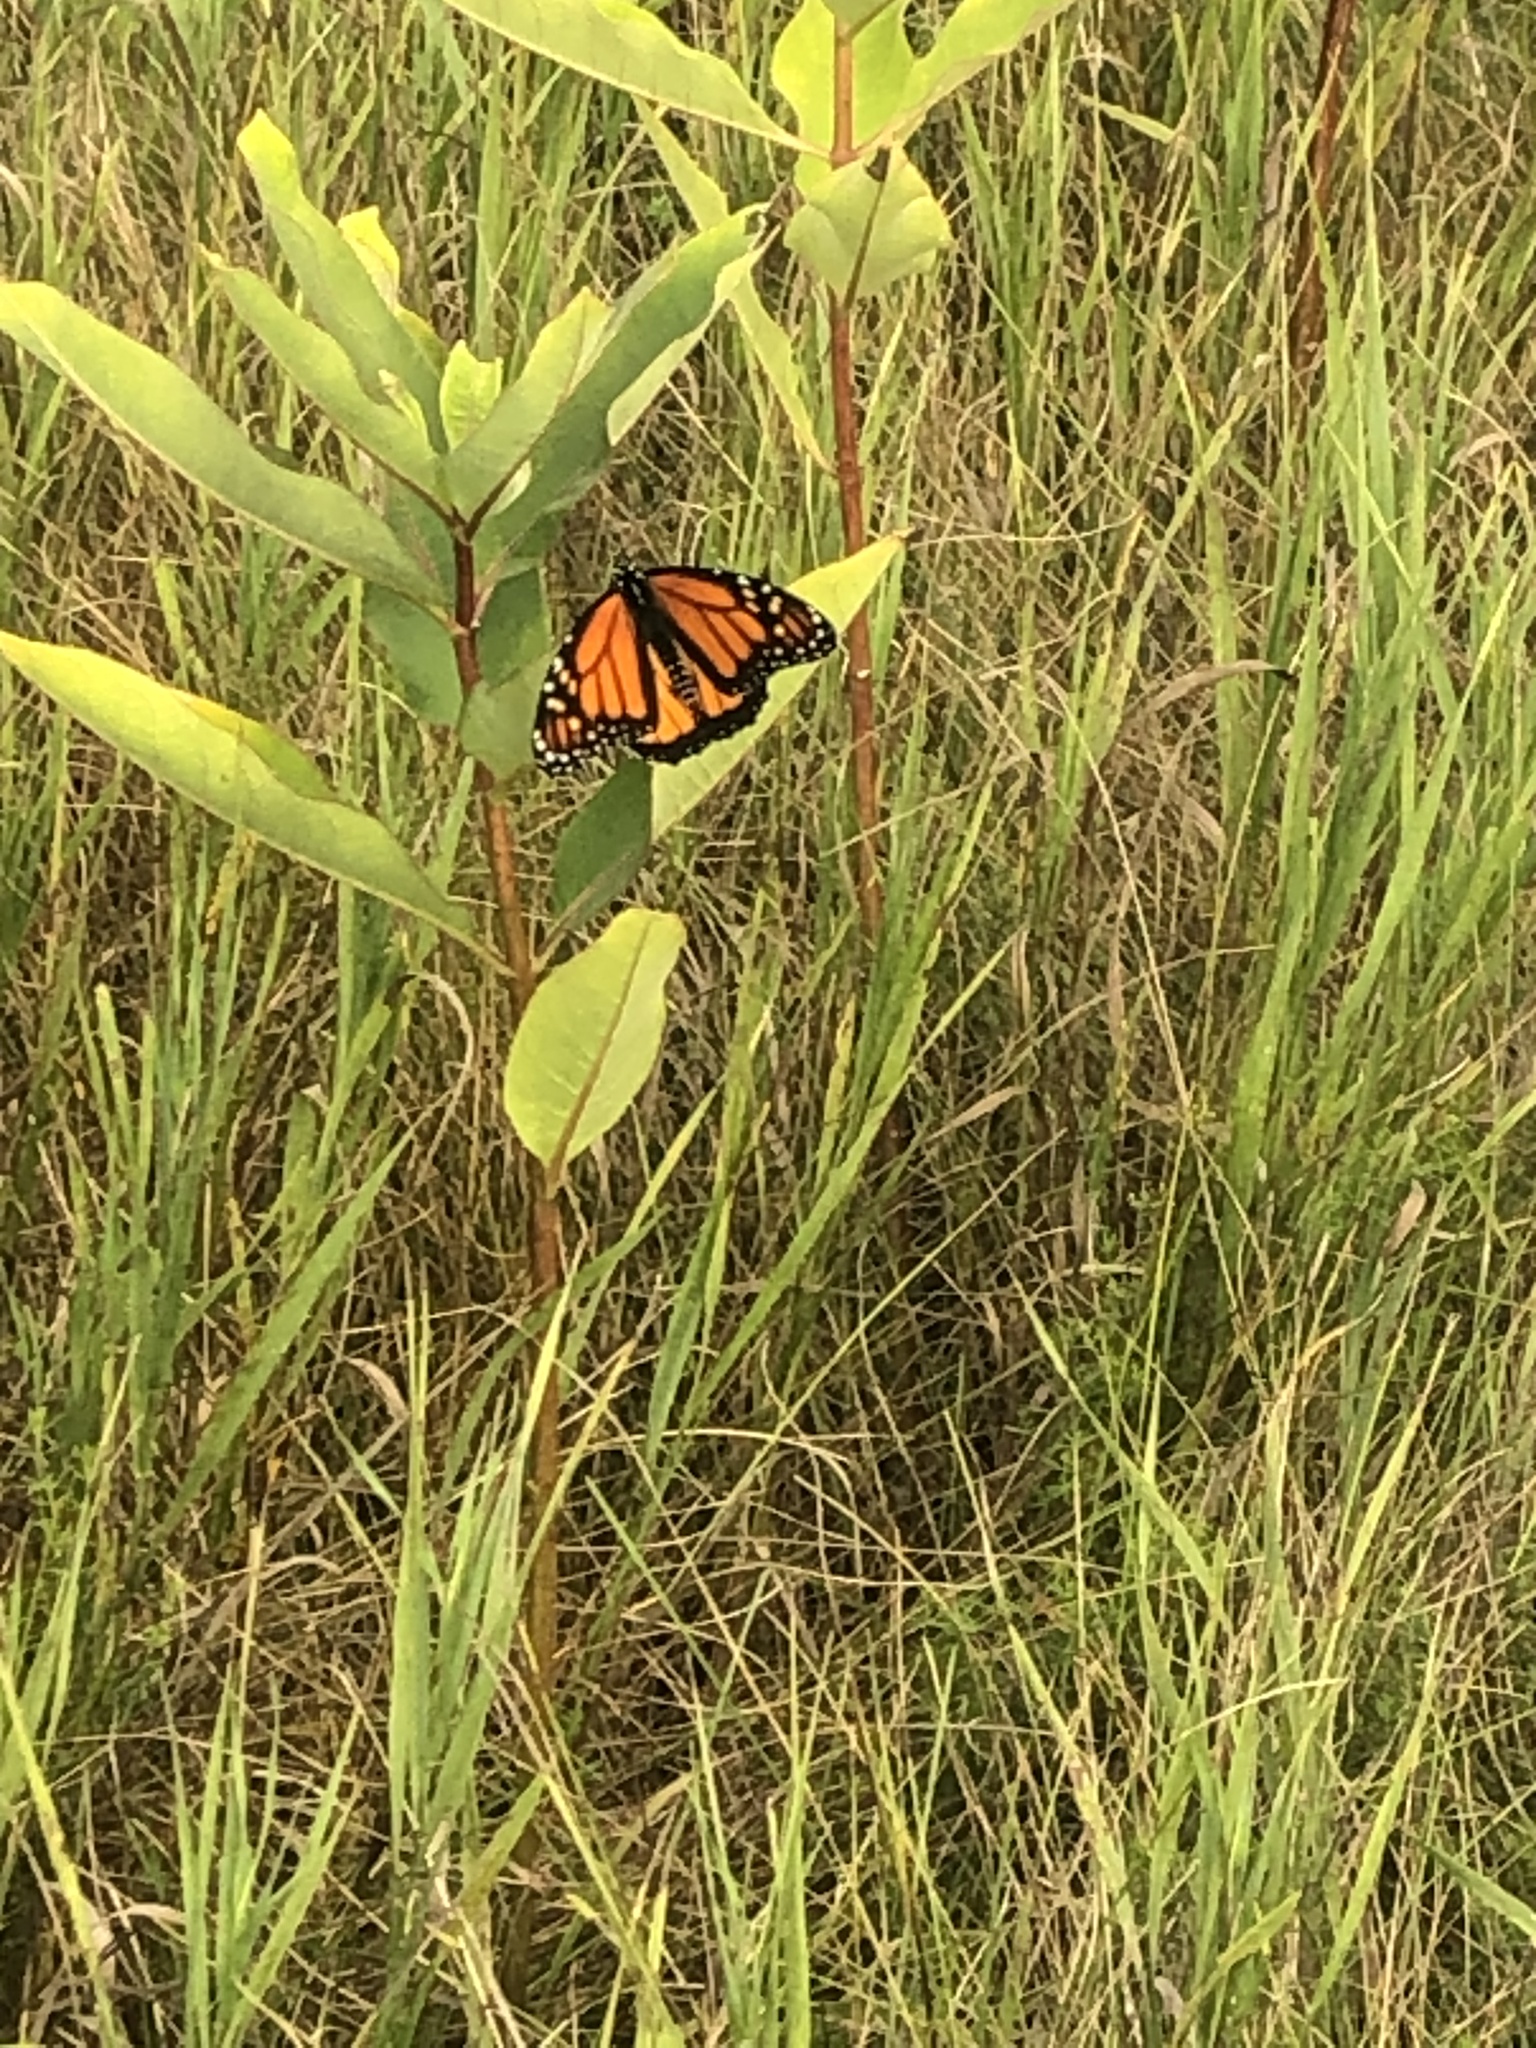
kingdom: Animalia
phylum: Arthropoda
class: Insecta
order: Lepidoptera
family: Nymphalidae
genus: Danaus
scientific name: Danaus plexippus
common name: Monarch
